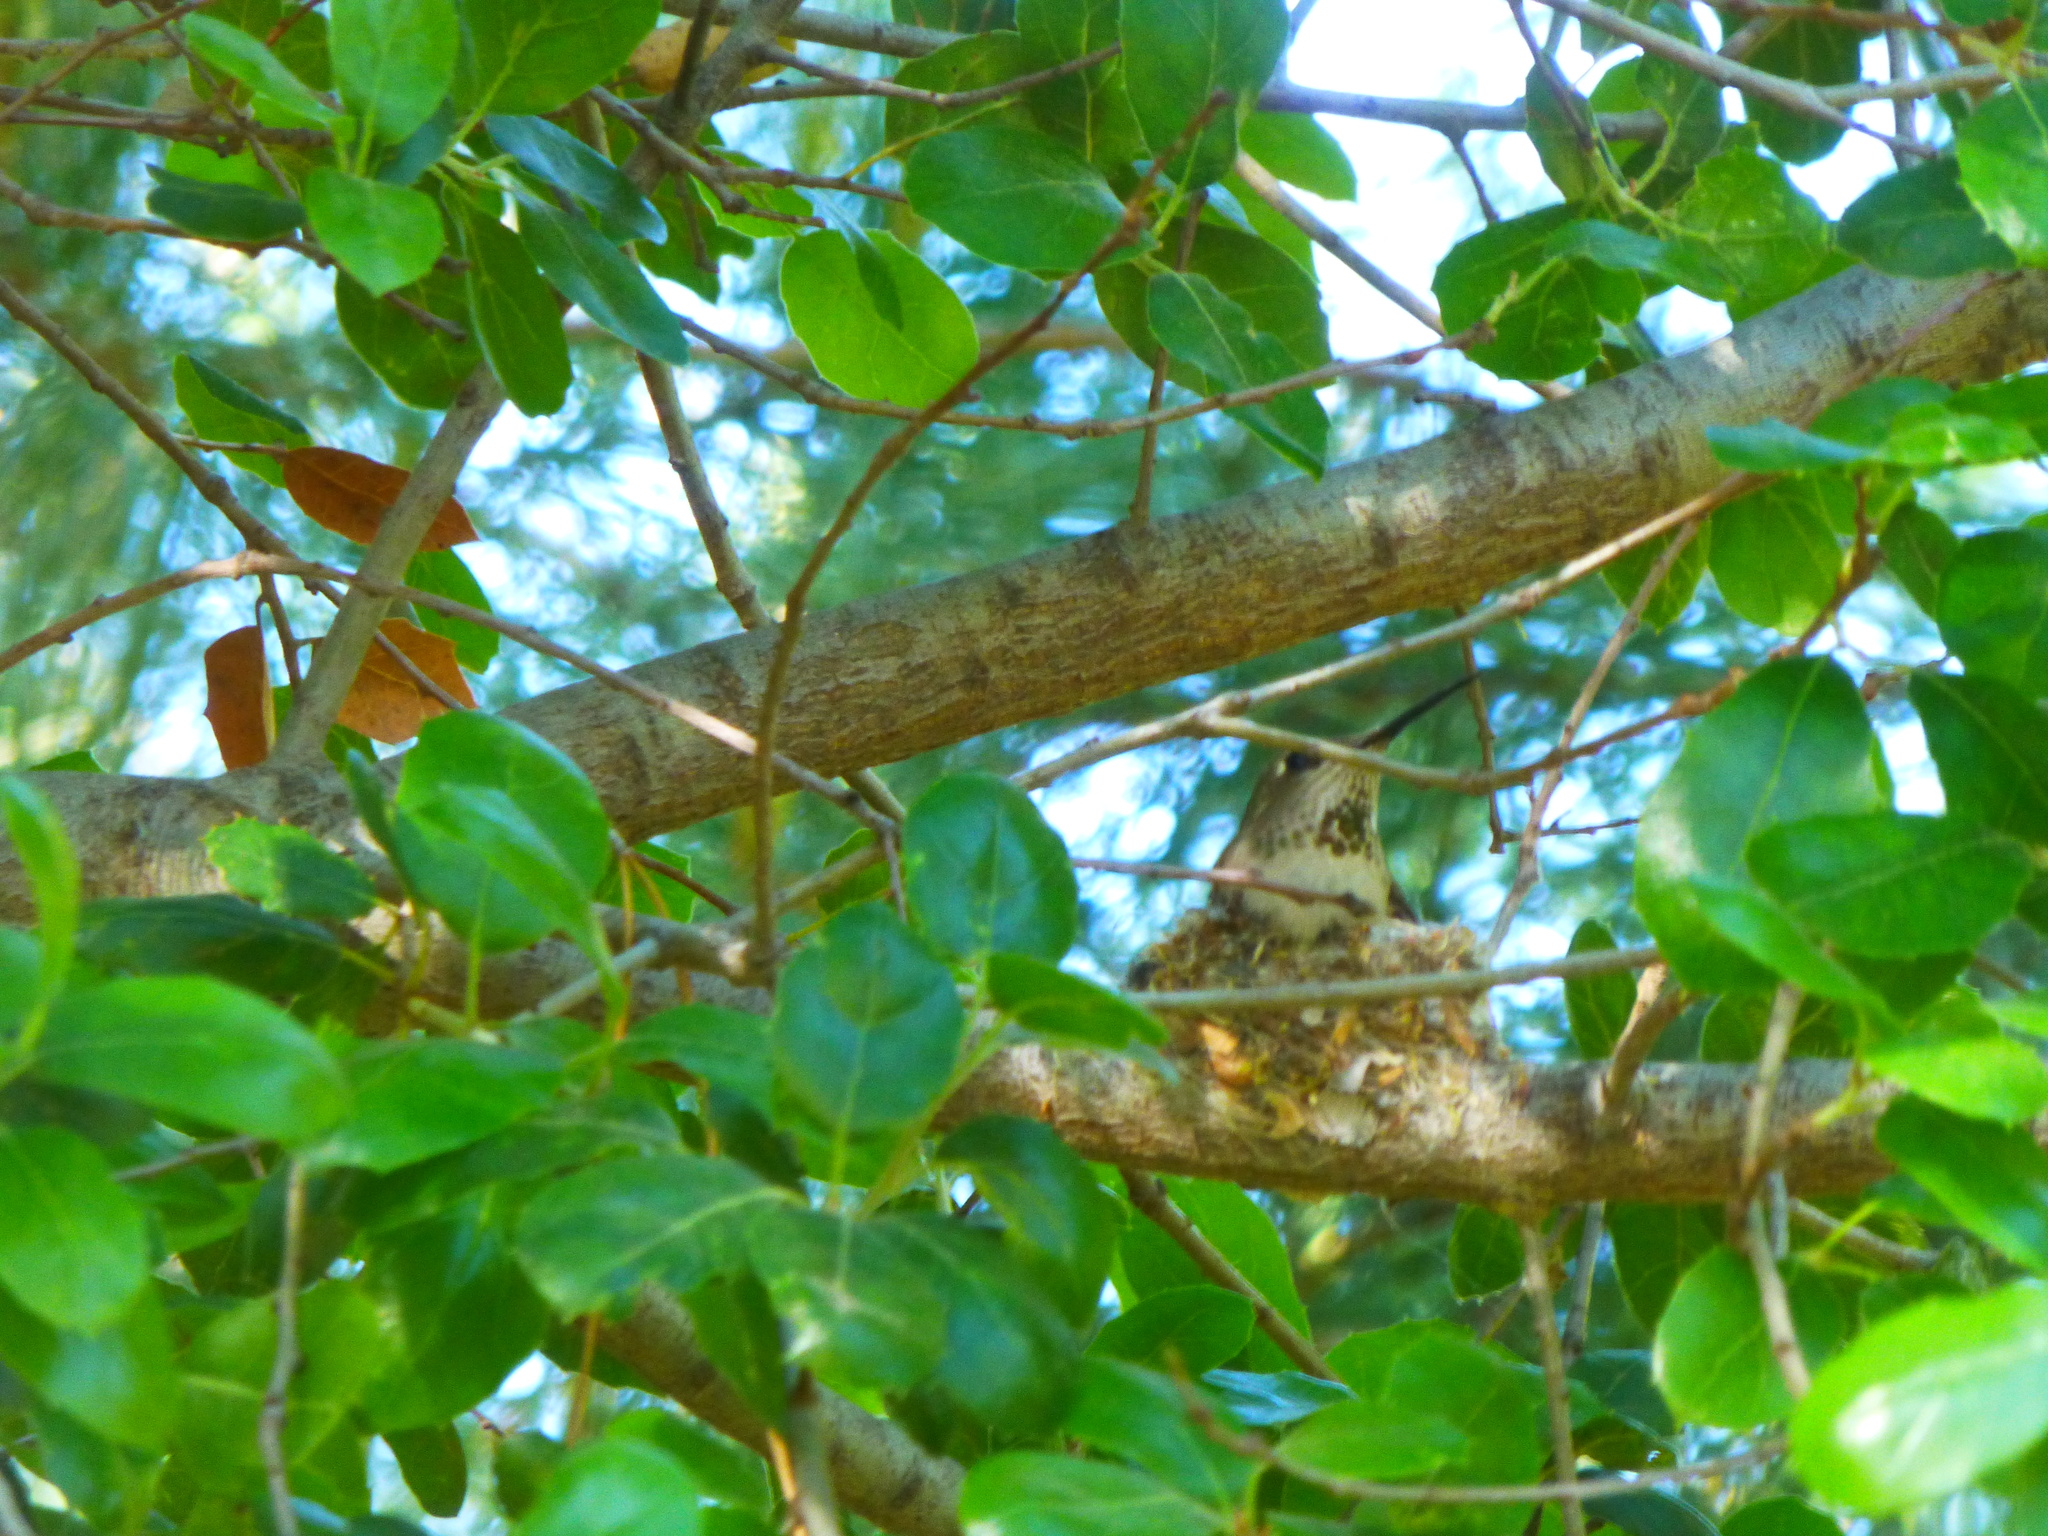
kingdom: Animalia
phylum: Chordata
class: Aves
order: Apodiformes
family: Trochilidae
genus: Selasphorus
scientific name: Selasphorus sasin
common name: Allen's hummingbird
